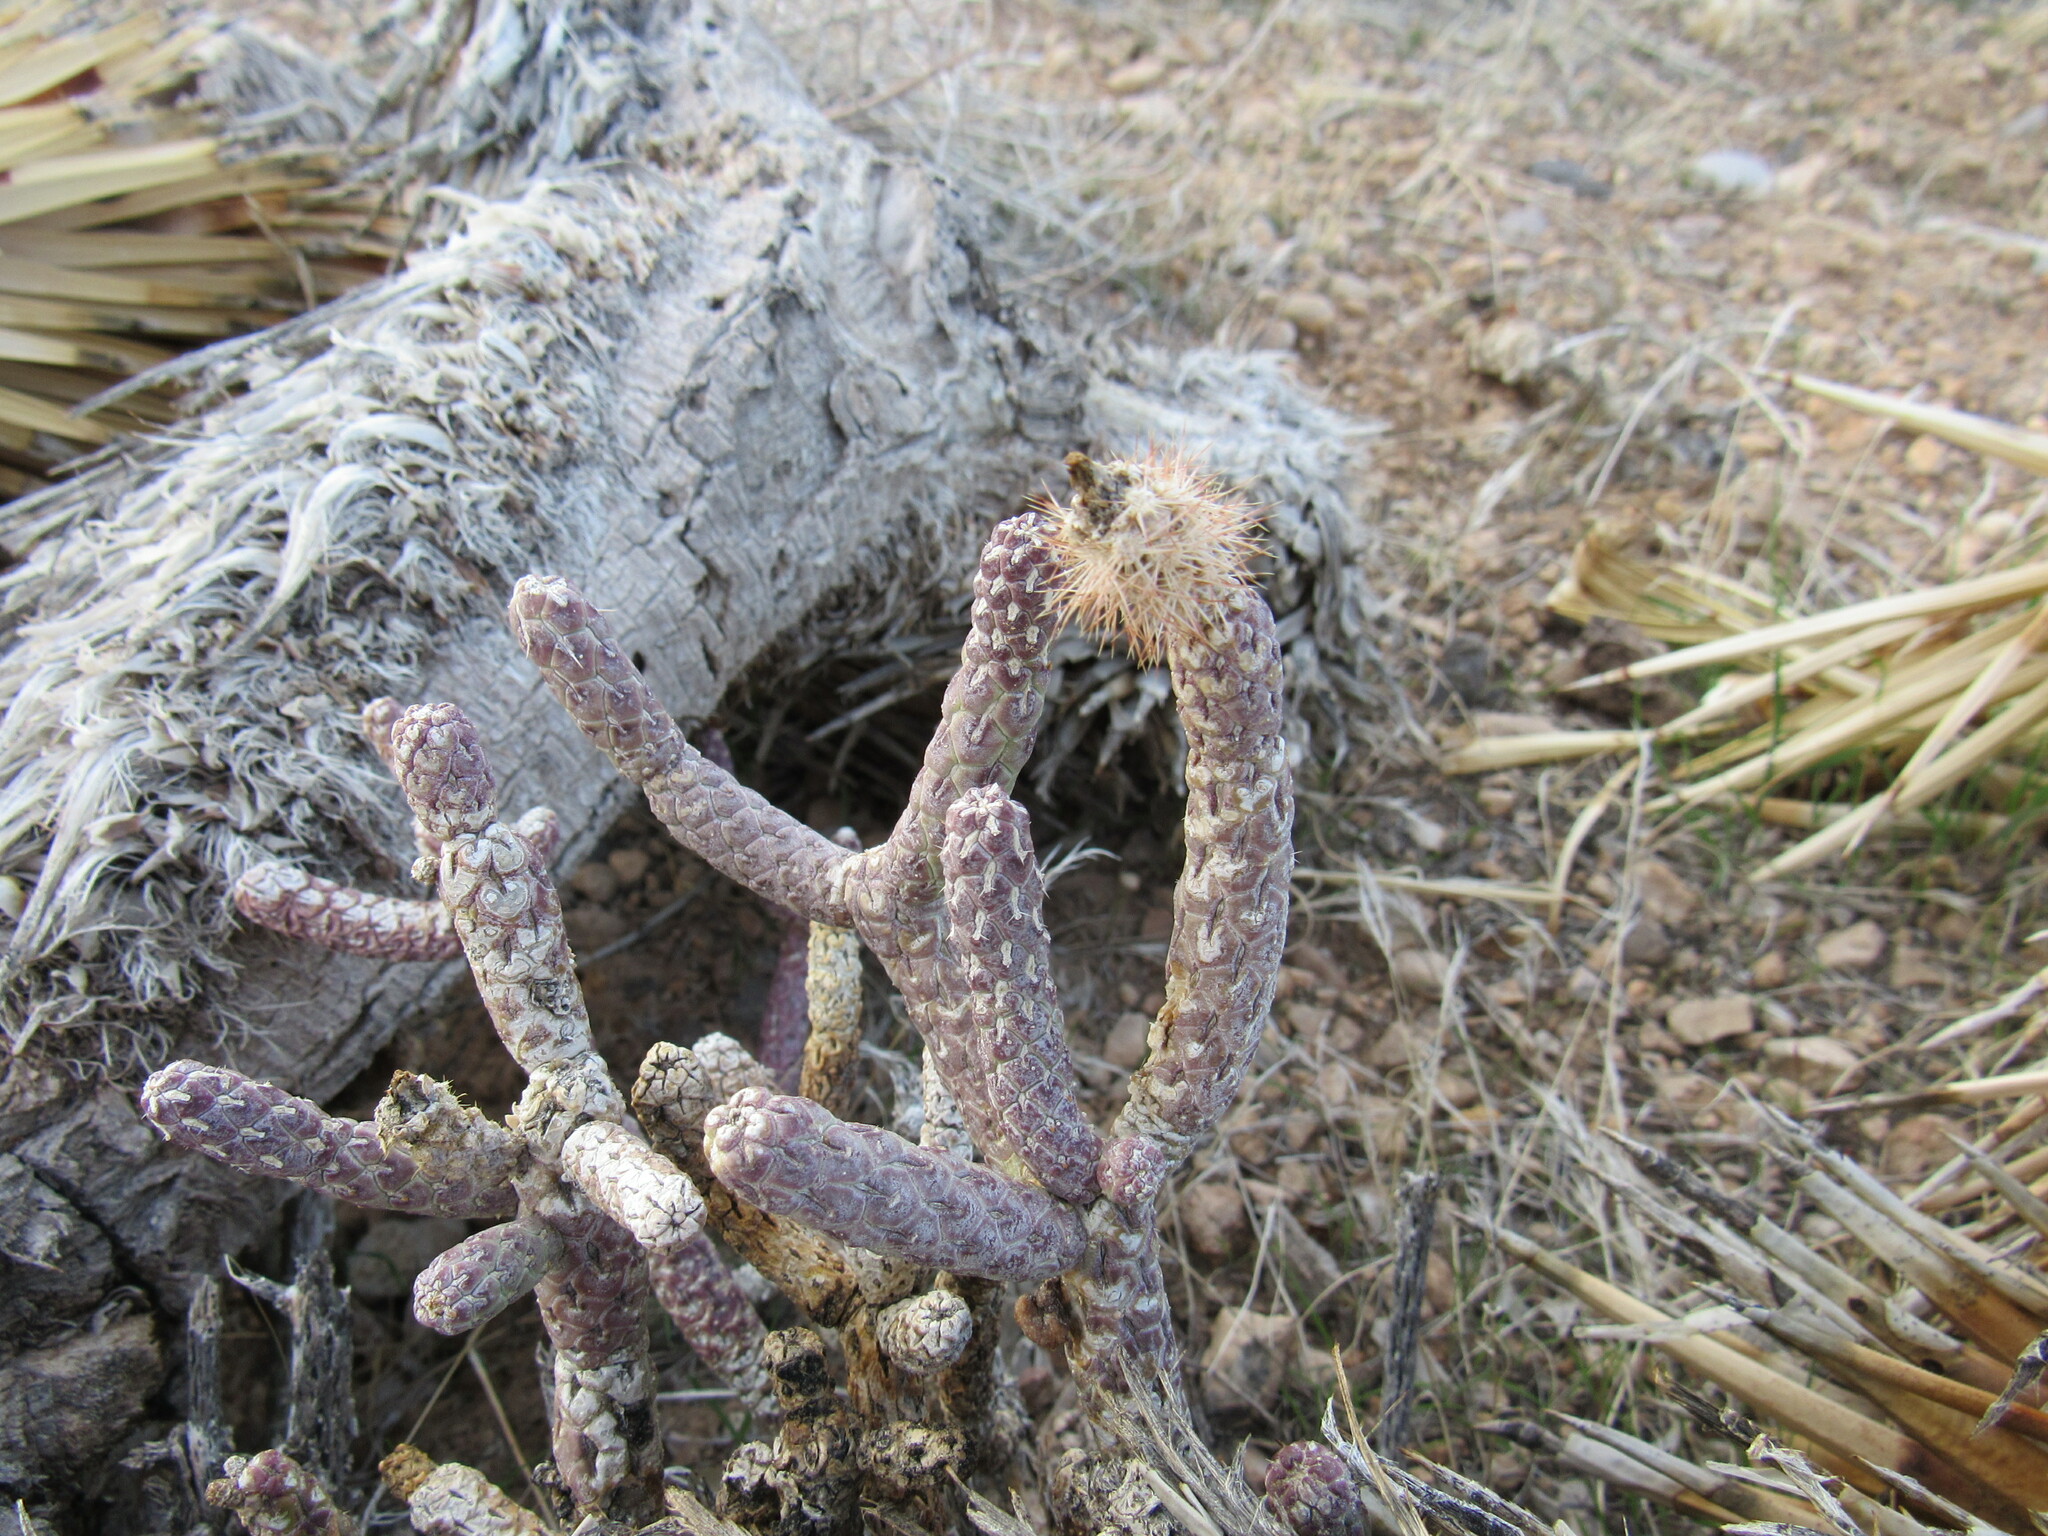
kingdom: Plantae
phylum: Tracheophyta
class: Magnoliopsida
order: Caryophyllales
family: Cactaceae
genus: Cylindropuntia
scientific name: Cylindropuntia ramosissima
